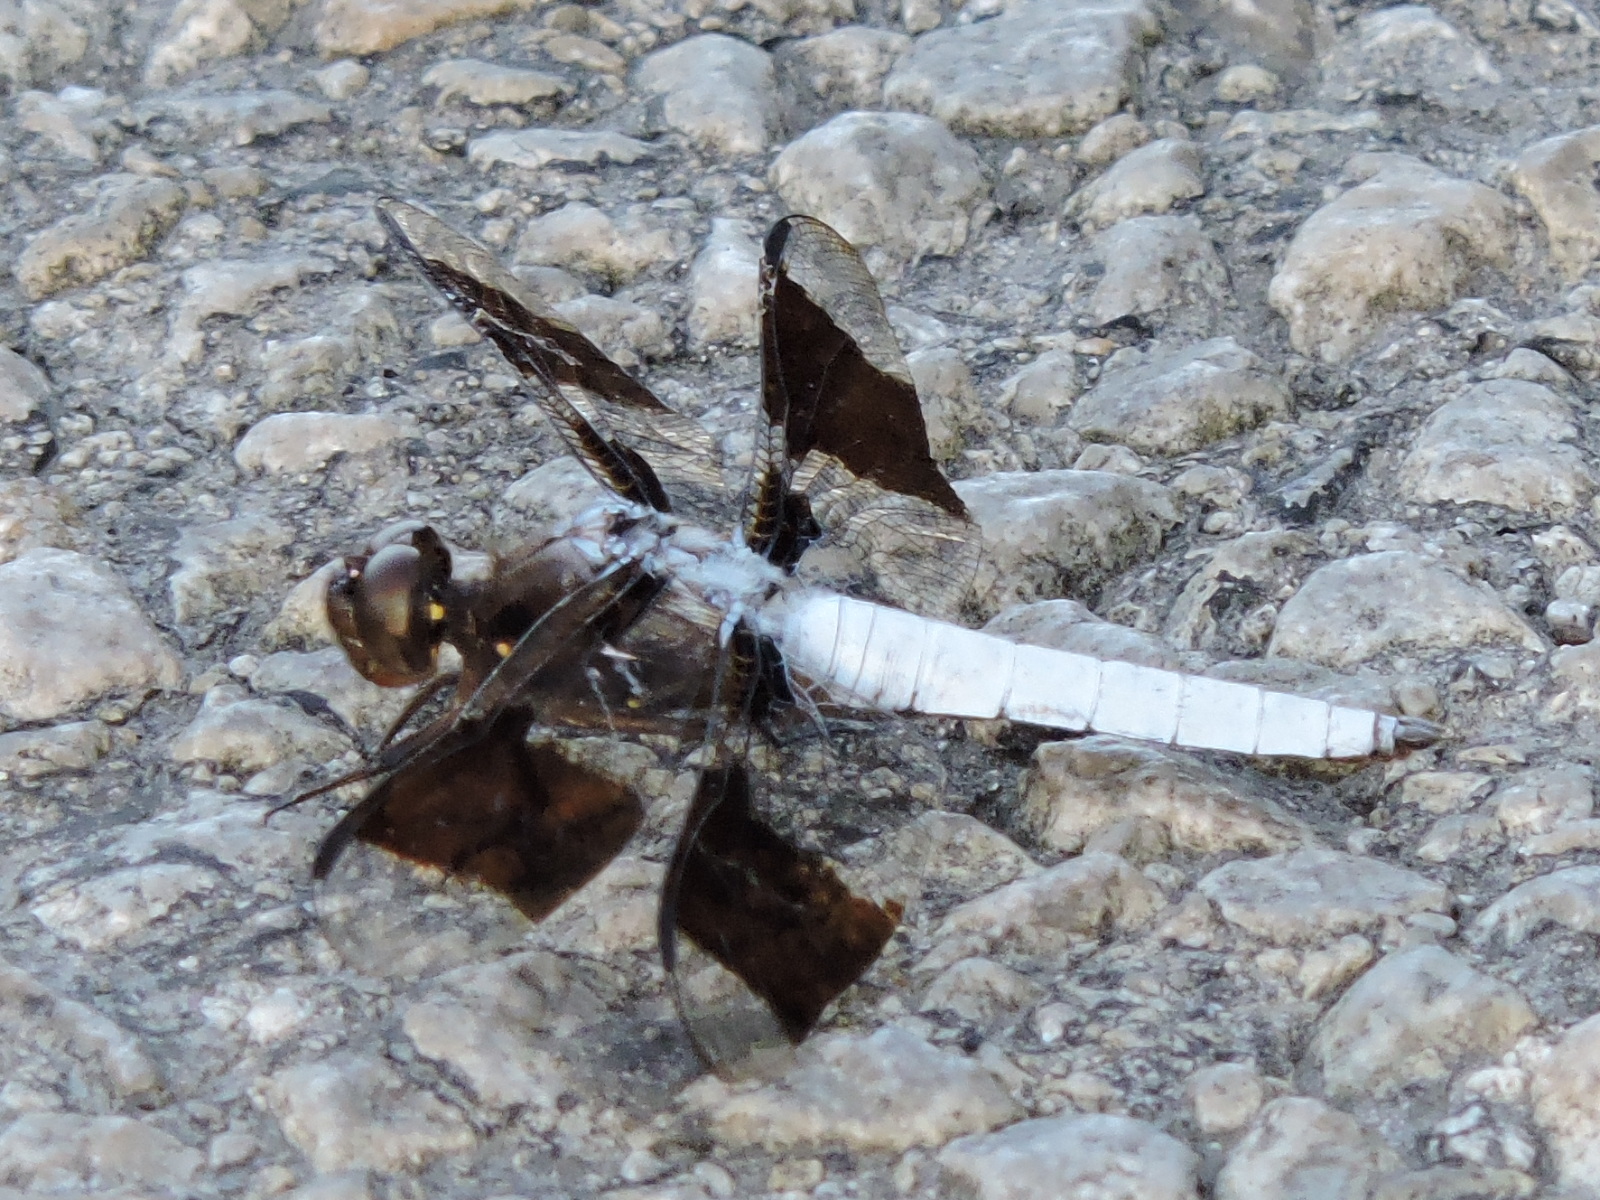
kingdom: Animalia
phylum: Arthropoda
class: Insecta
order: Odonata
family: Libellulidae
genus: Plathemis
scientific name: Plathemis lydia
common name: Common whitetail
